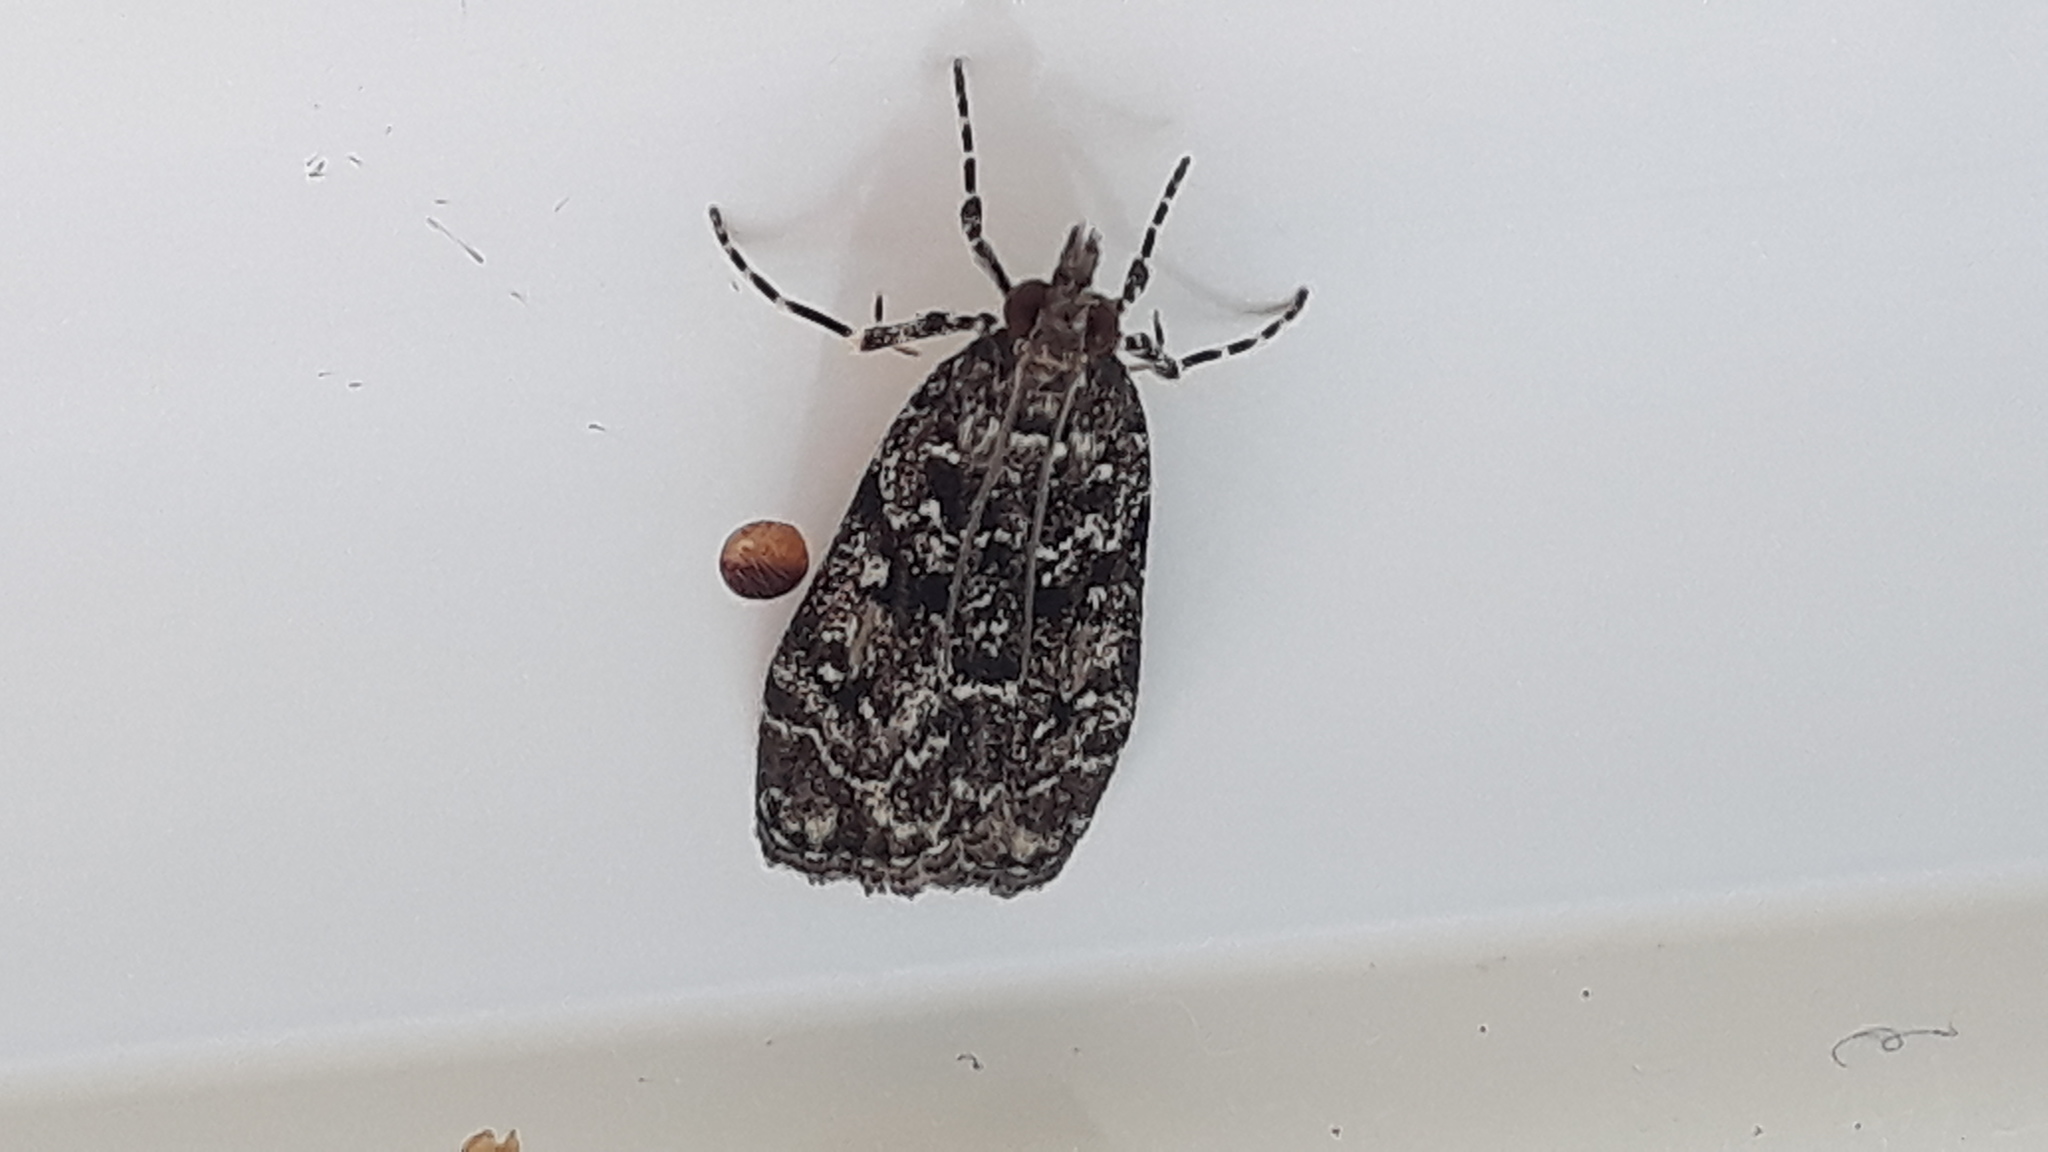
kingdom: Animalia
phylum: Arthropoda
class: Insecta
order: Lepidoptera
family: Crambidae
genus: Eudonia
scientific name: Eudonia philerga
